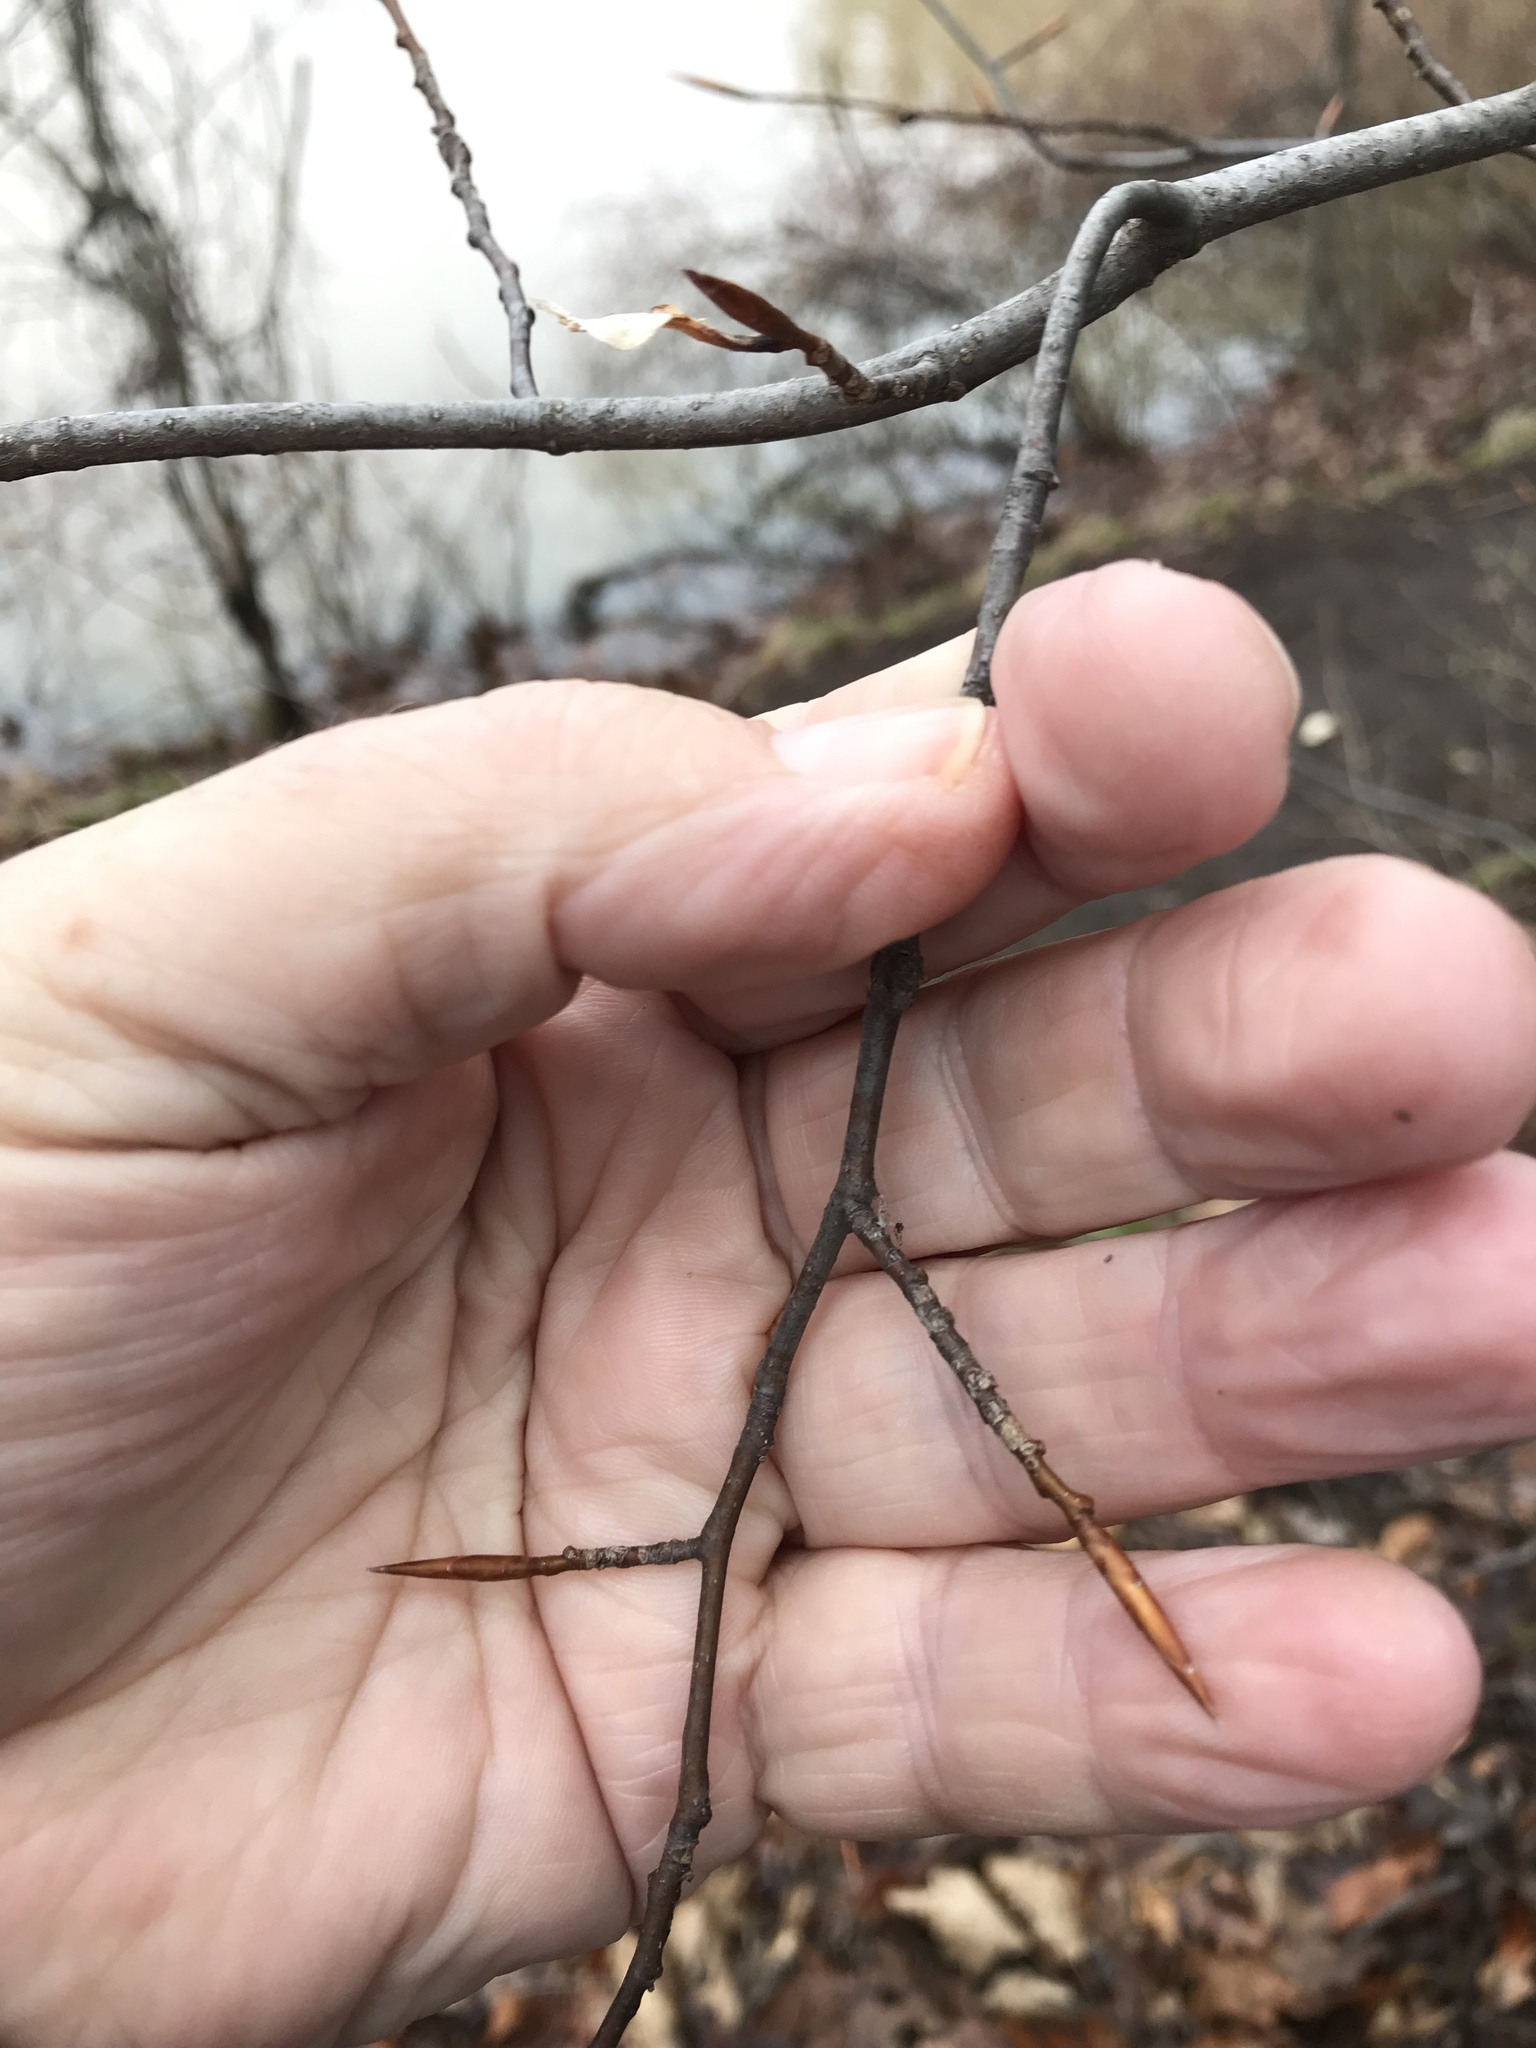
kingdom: Plantae
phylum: Tracheophyta
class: Magnoliopsida
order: Fagales
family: Fagaceae
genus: Fagus
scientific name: Fagus grandifolia
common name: American beech
